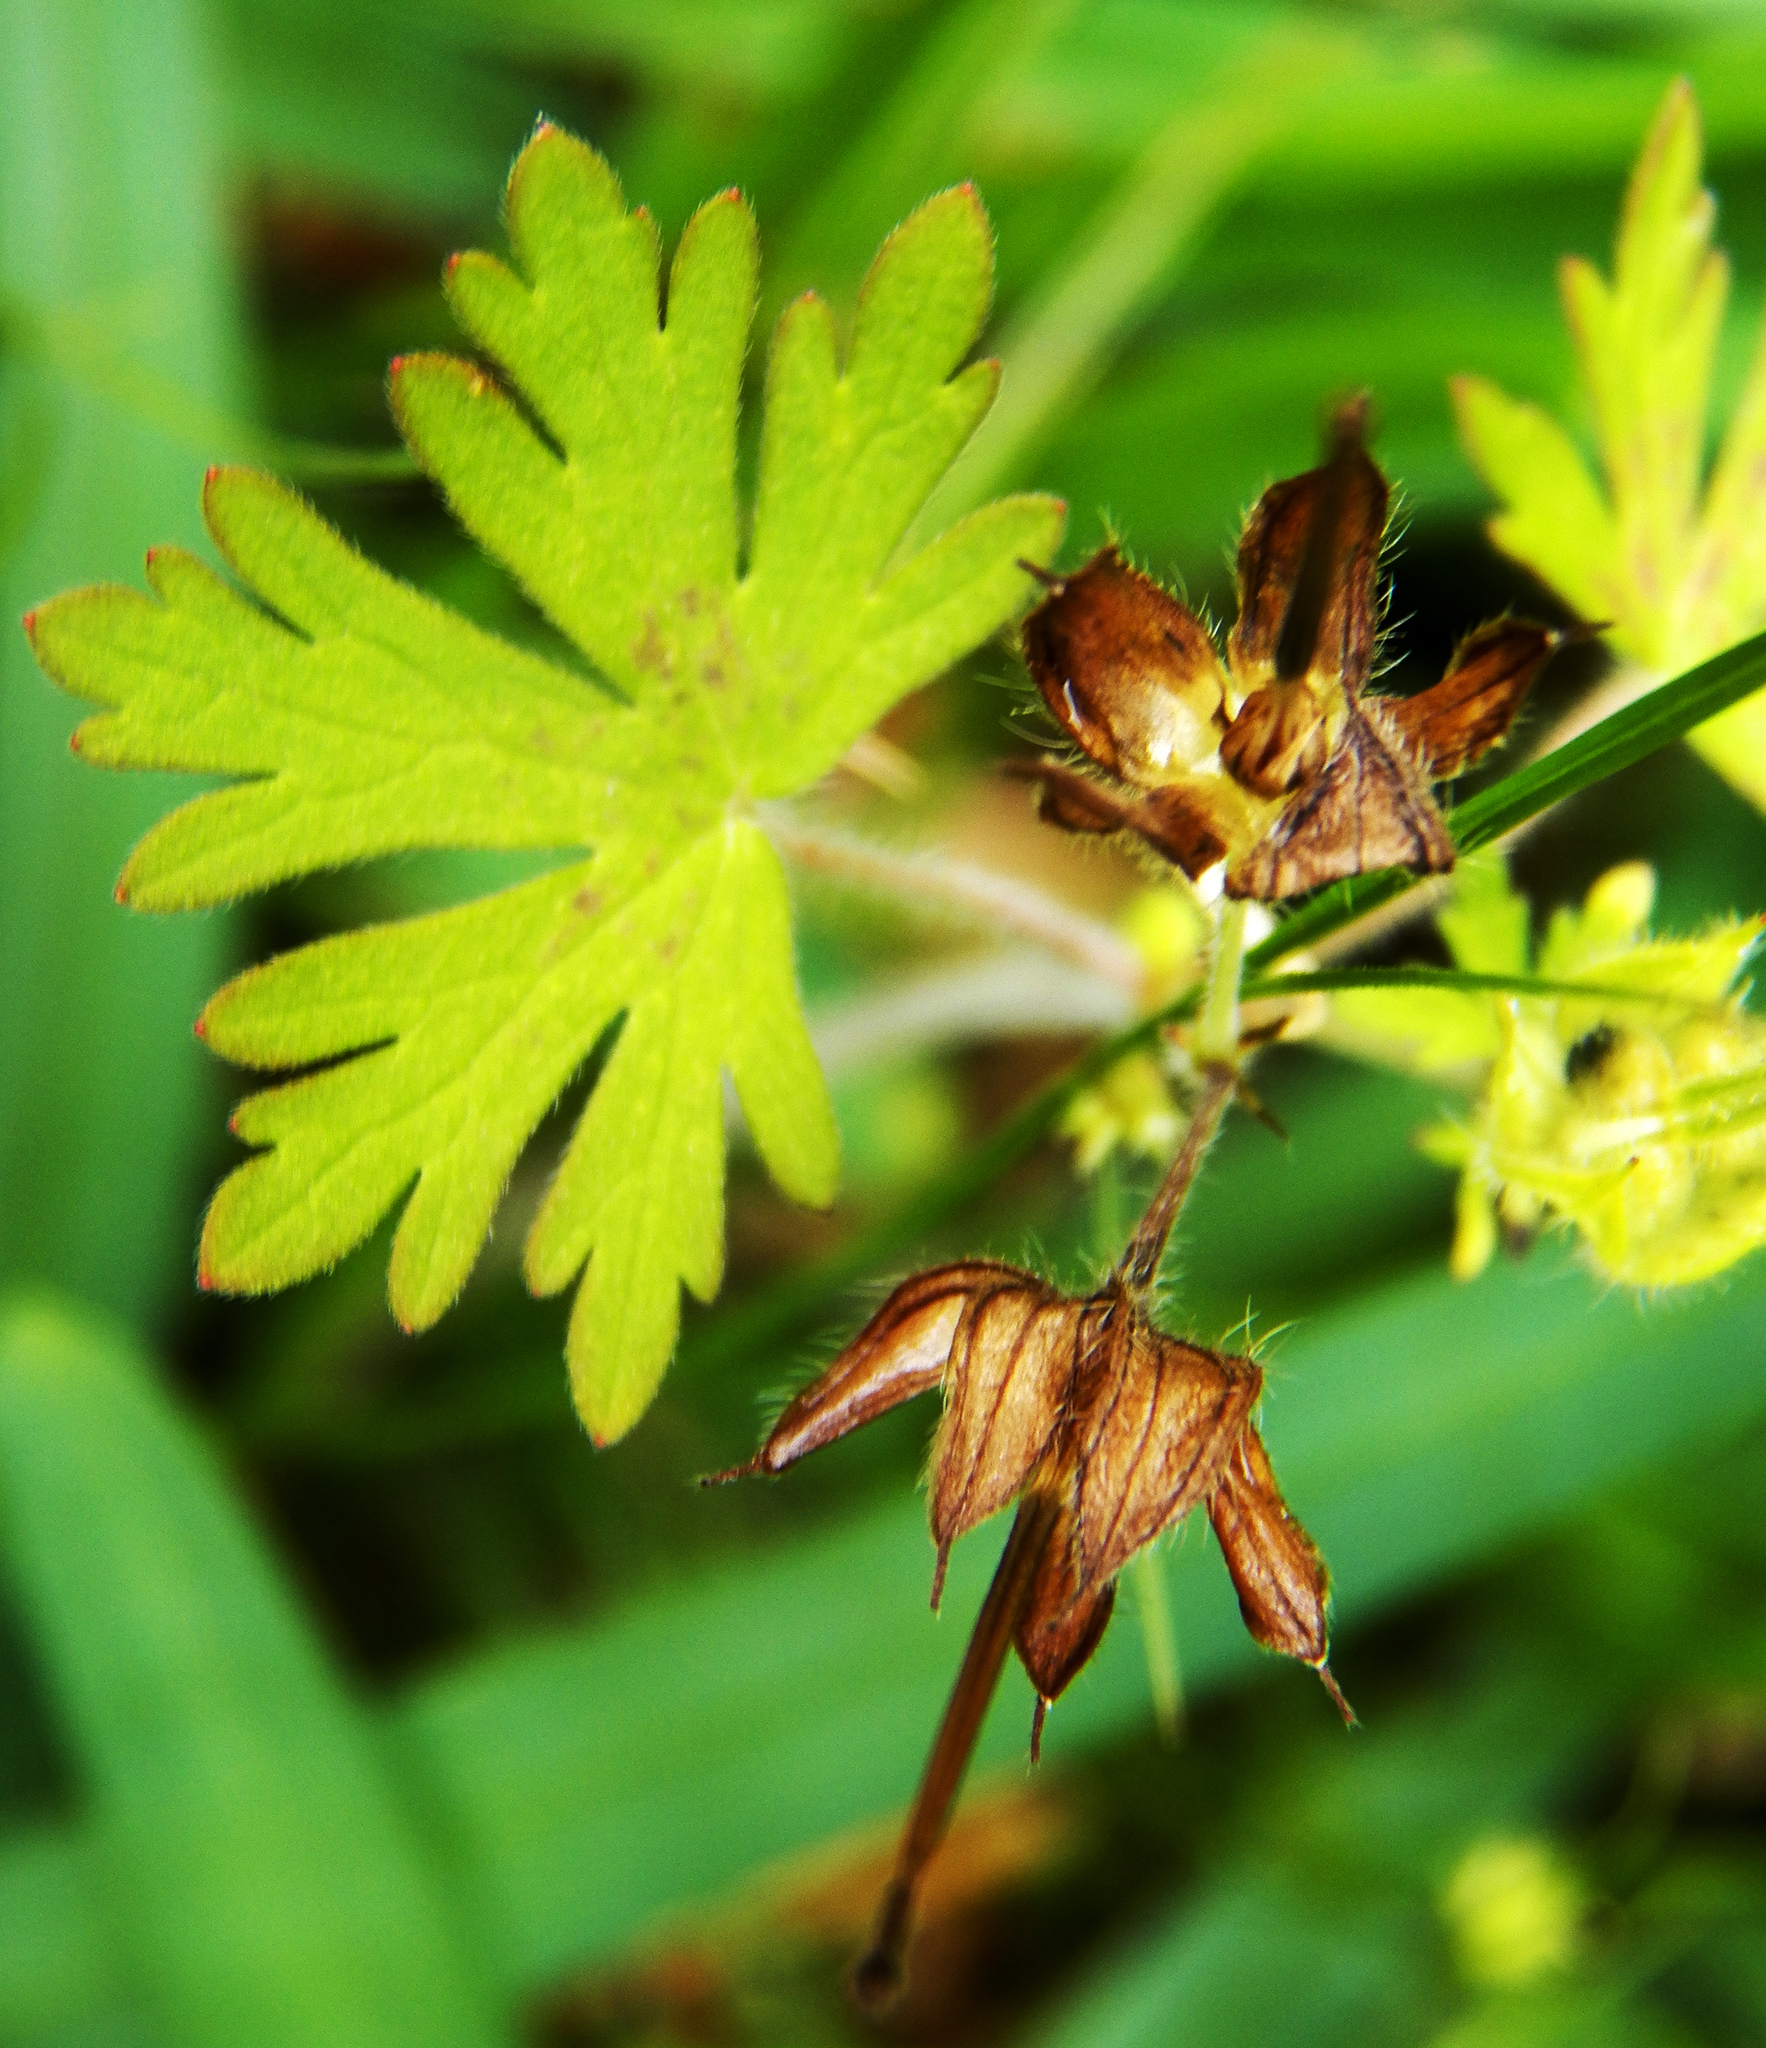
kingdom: Plantae
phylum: Tracheophyta
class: Magnoliopsida
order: Geraniales
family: Geraniaceae
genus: Geranium
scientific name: Geranium carolinianum
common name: Carolina crane's-bill
